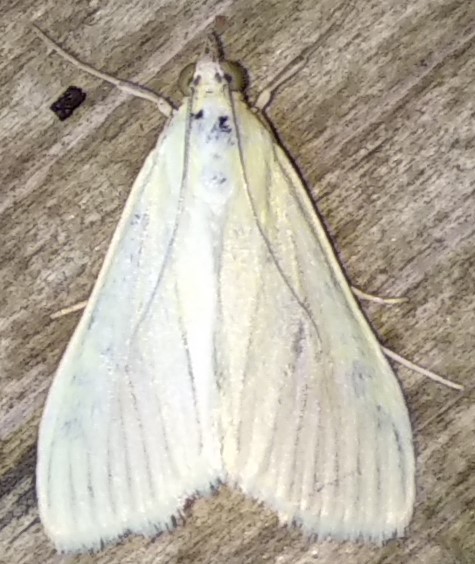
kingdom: Animalia
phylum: Arthropoda
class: Insecta
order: Lepidoptera
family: Crambidae
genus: Sitochroa
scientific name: Sitochroa palealis
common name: Greenish-yellow sitochroa moth
